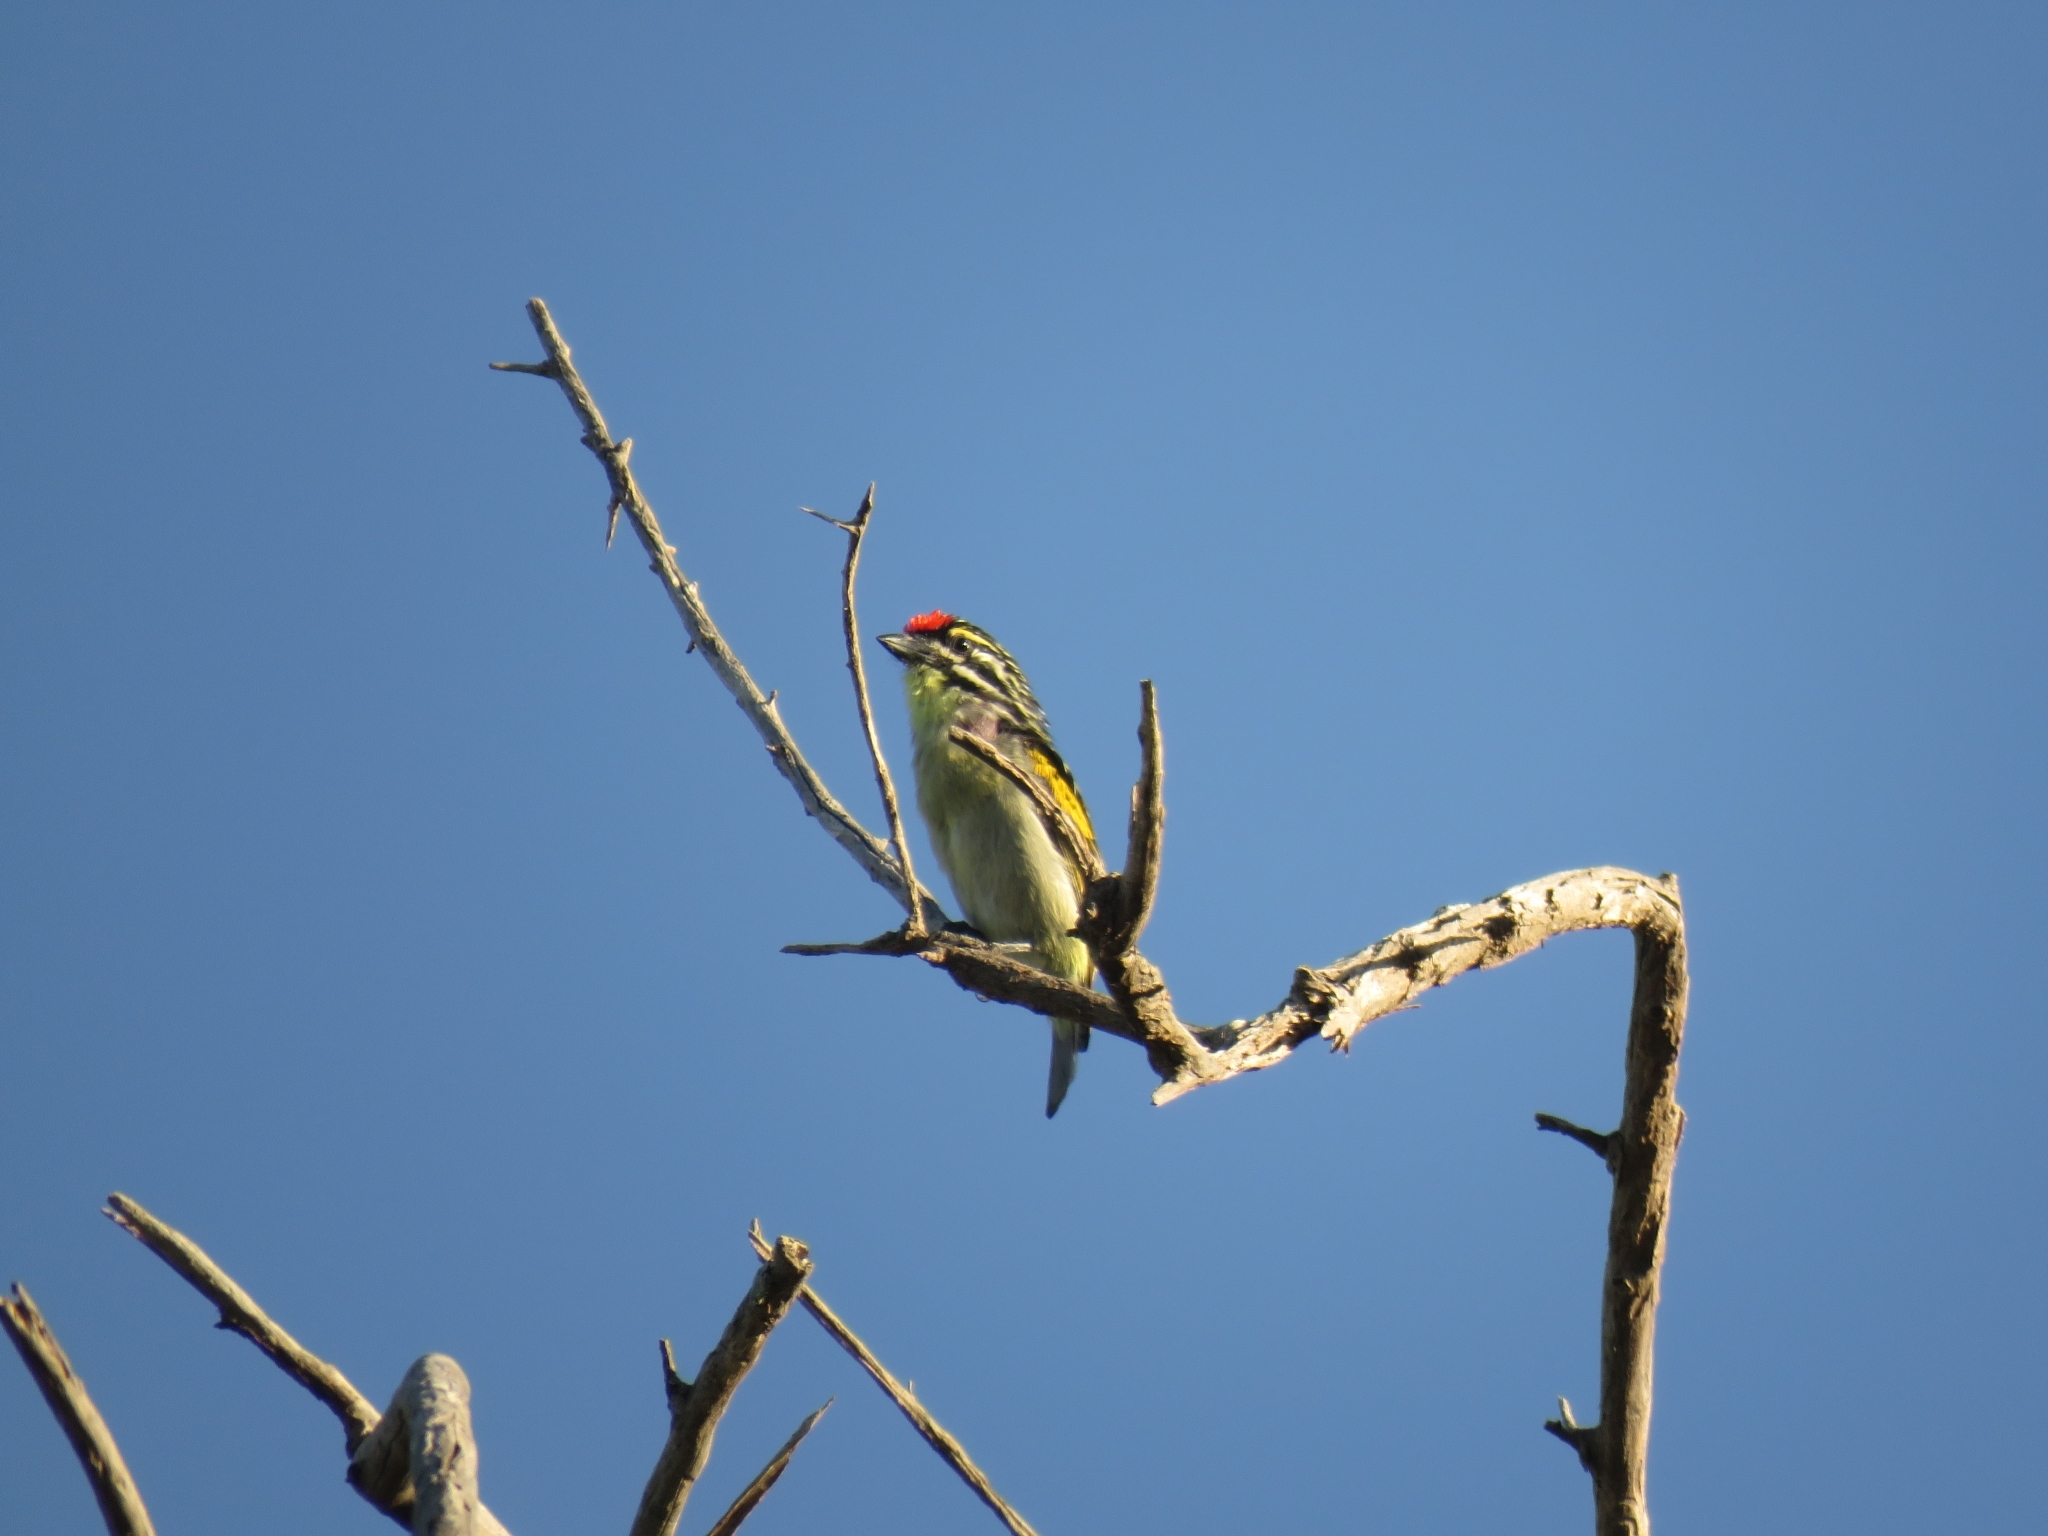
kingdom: Animalia
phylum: Chordata
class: Aves
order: Piciformes
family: Lybiidae
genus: Pogoniulus
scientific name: Pogoniulus pusillus
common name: Red-fronted tinkerbird
